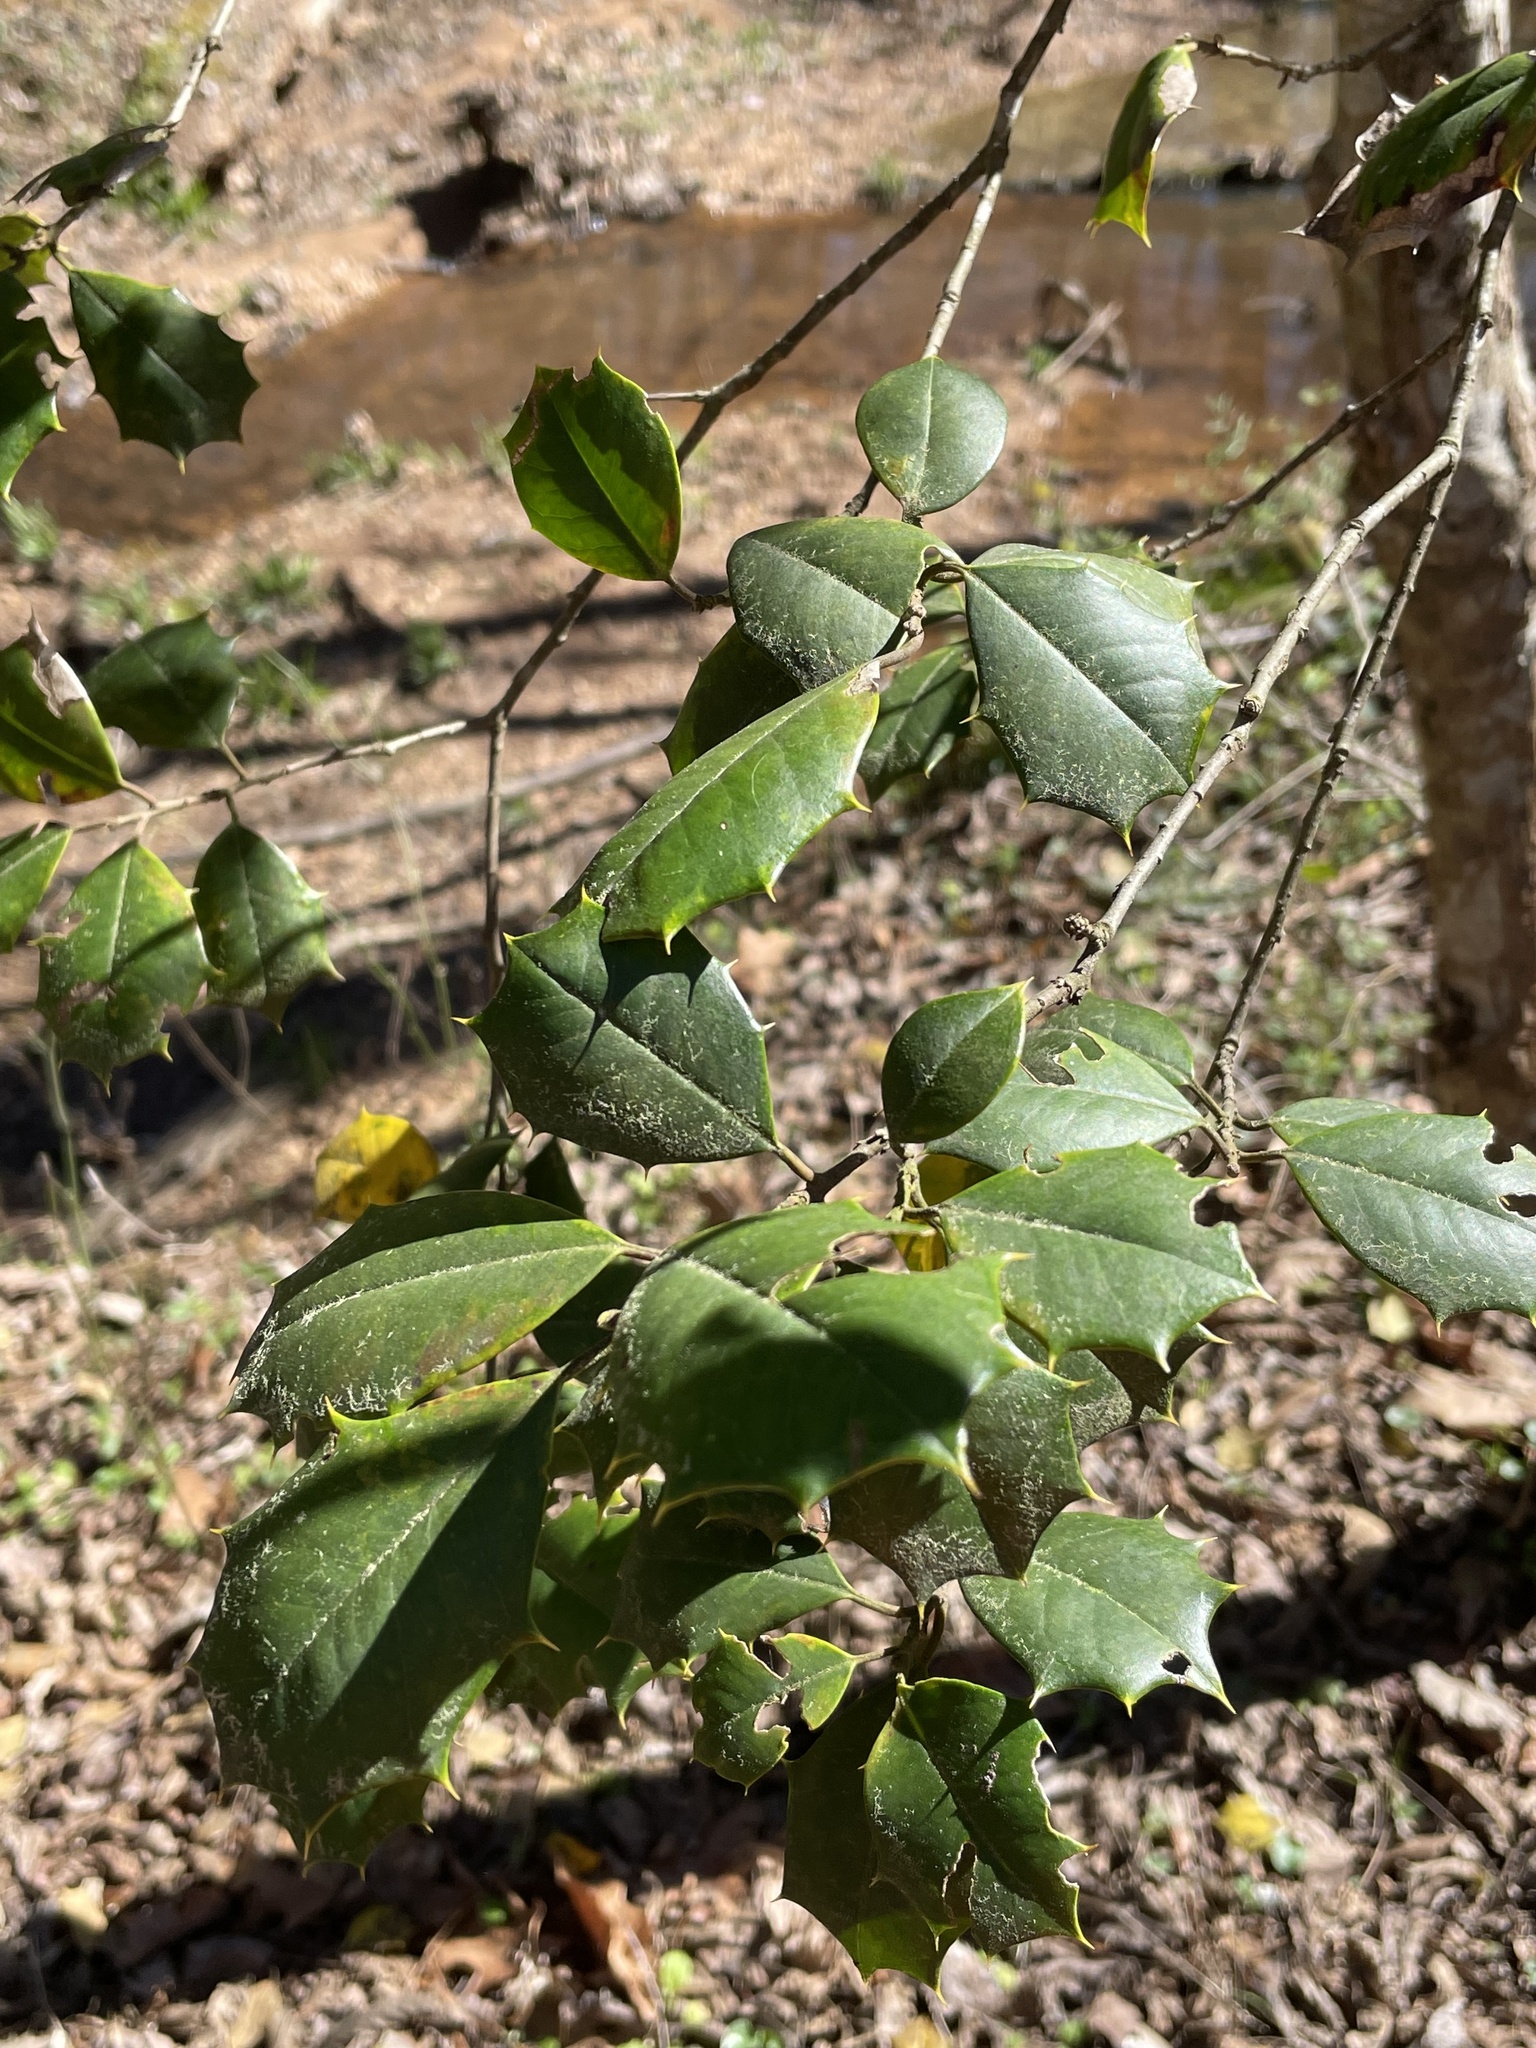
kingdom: Plantae
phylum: Tracheophyta
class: Magnoliopsida
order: Aquifoliales
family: Aquifoliaceae
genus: Ilex
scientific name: Ilex opaca
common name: American holly
